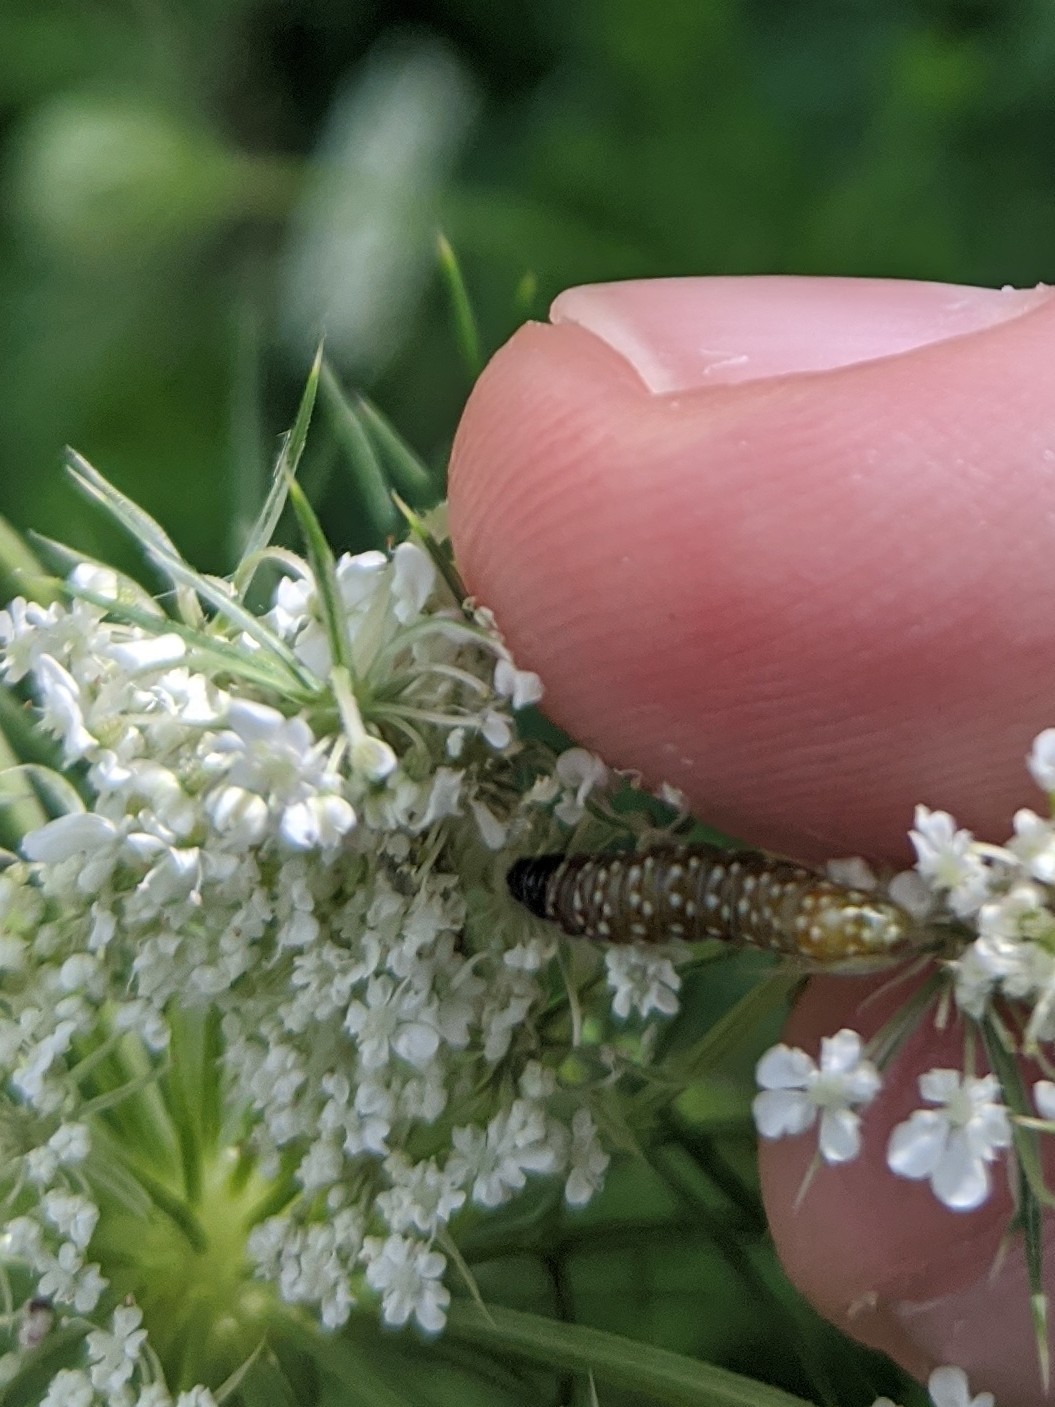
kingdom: Animalia
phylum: Arthropoda
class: Insecta
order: Lepidoptera
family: Depressariidae
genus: Depressaria
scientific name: Depressaria depressana
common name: Lost flat-body
